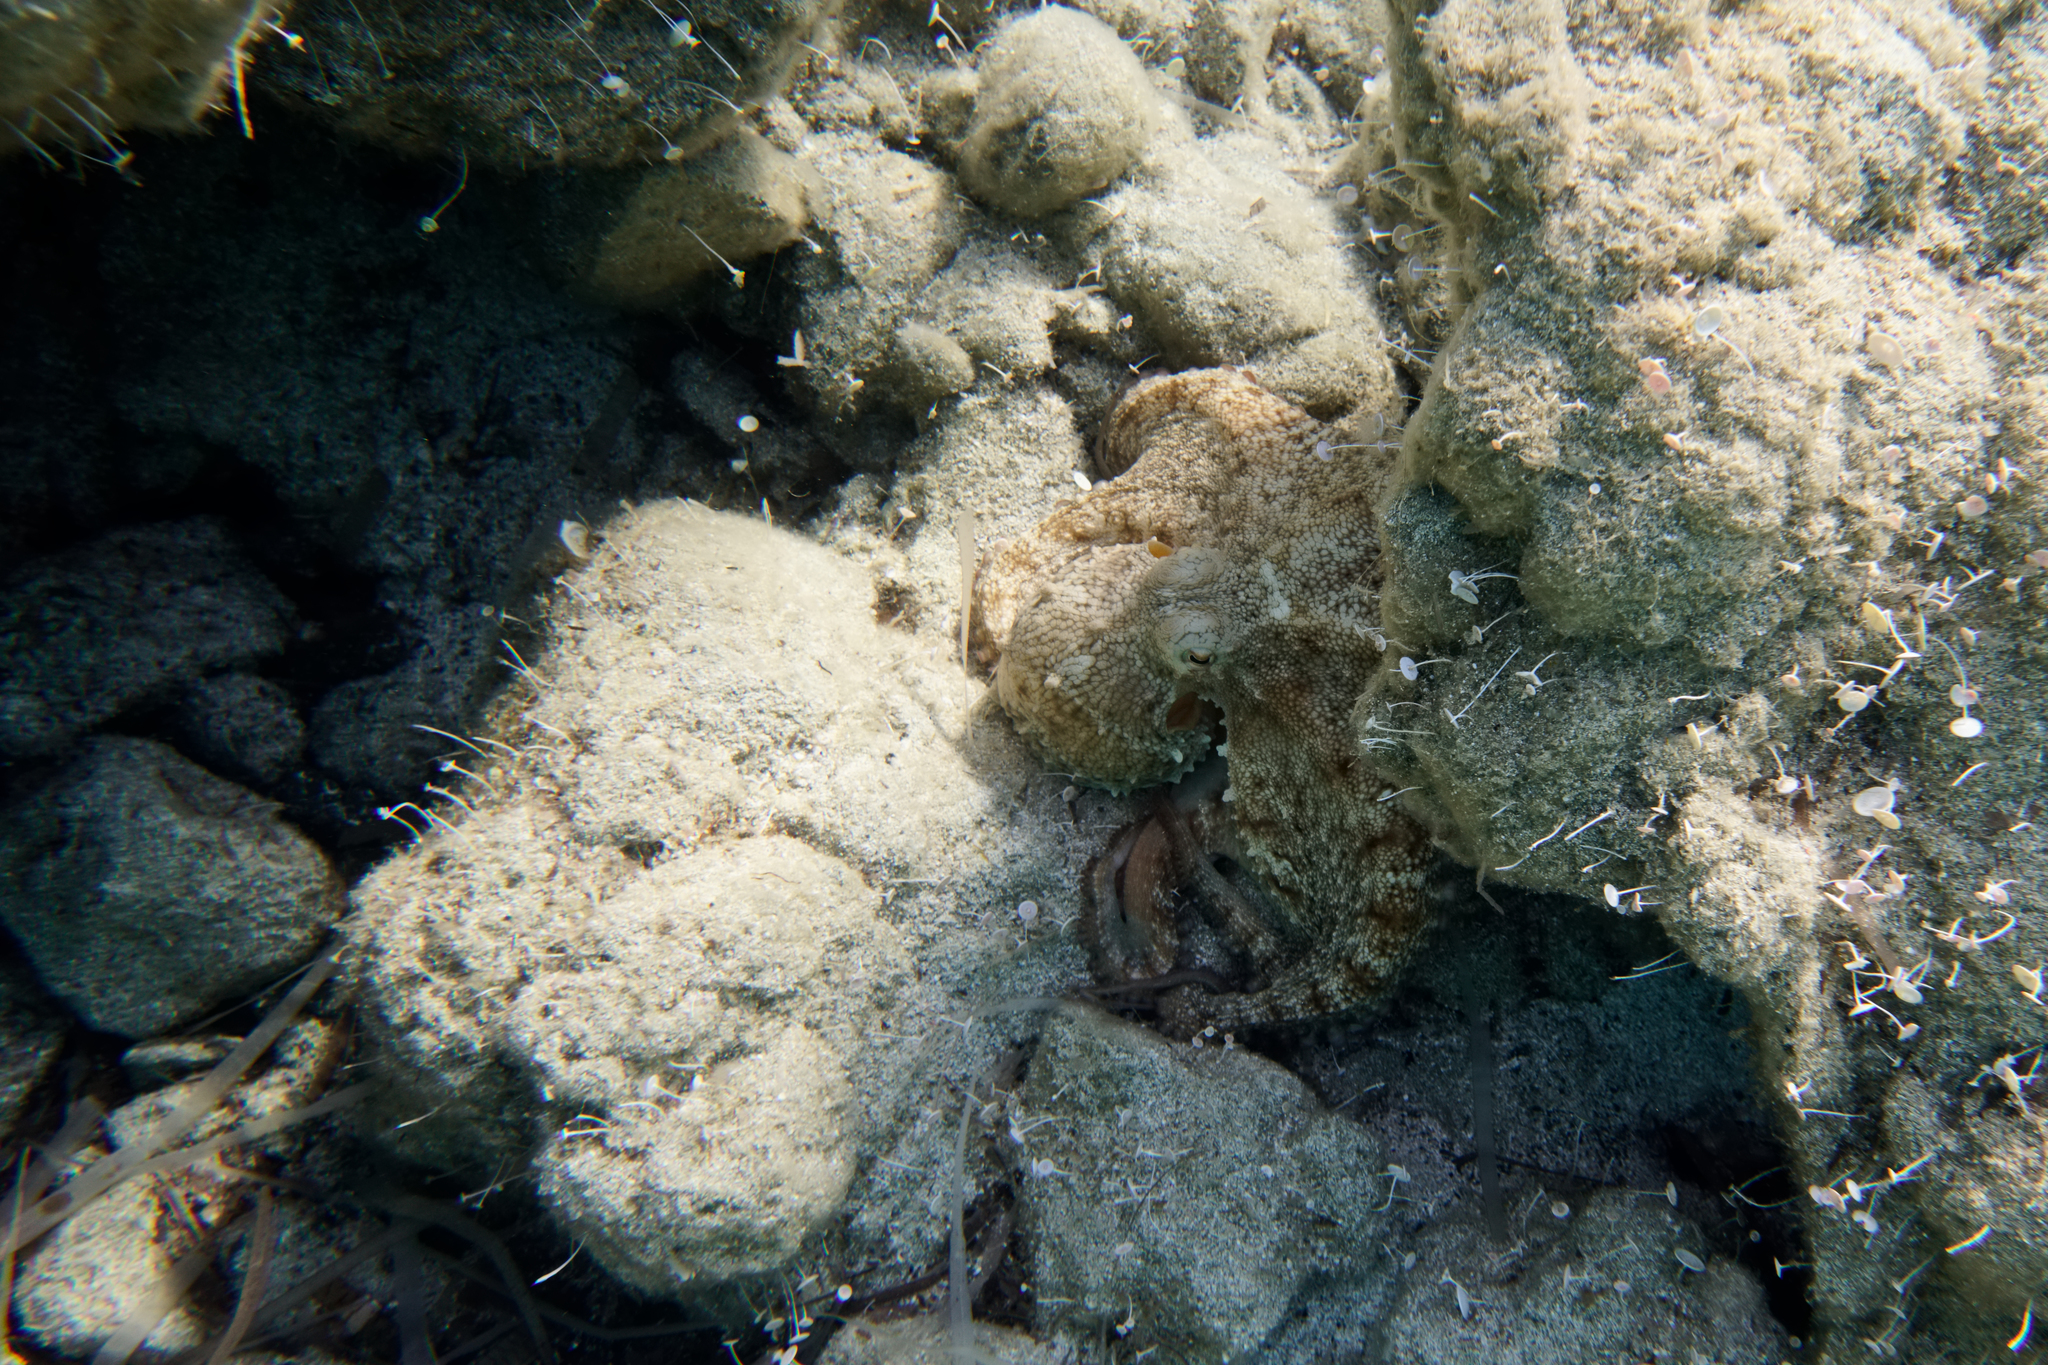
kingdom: Animalia
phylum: Mollusca
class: Cephalopoda
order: Octopoda
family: Octopodidae
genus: Octopus
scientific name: Octopus vulgaris
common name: Common octopus
